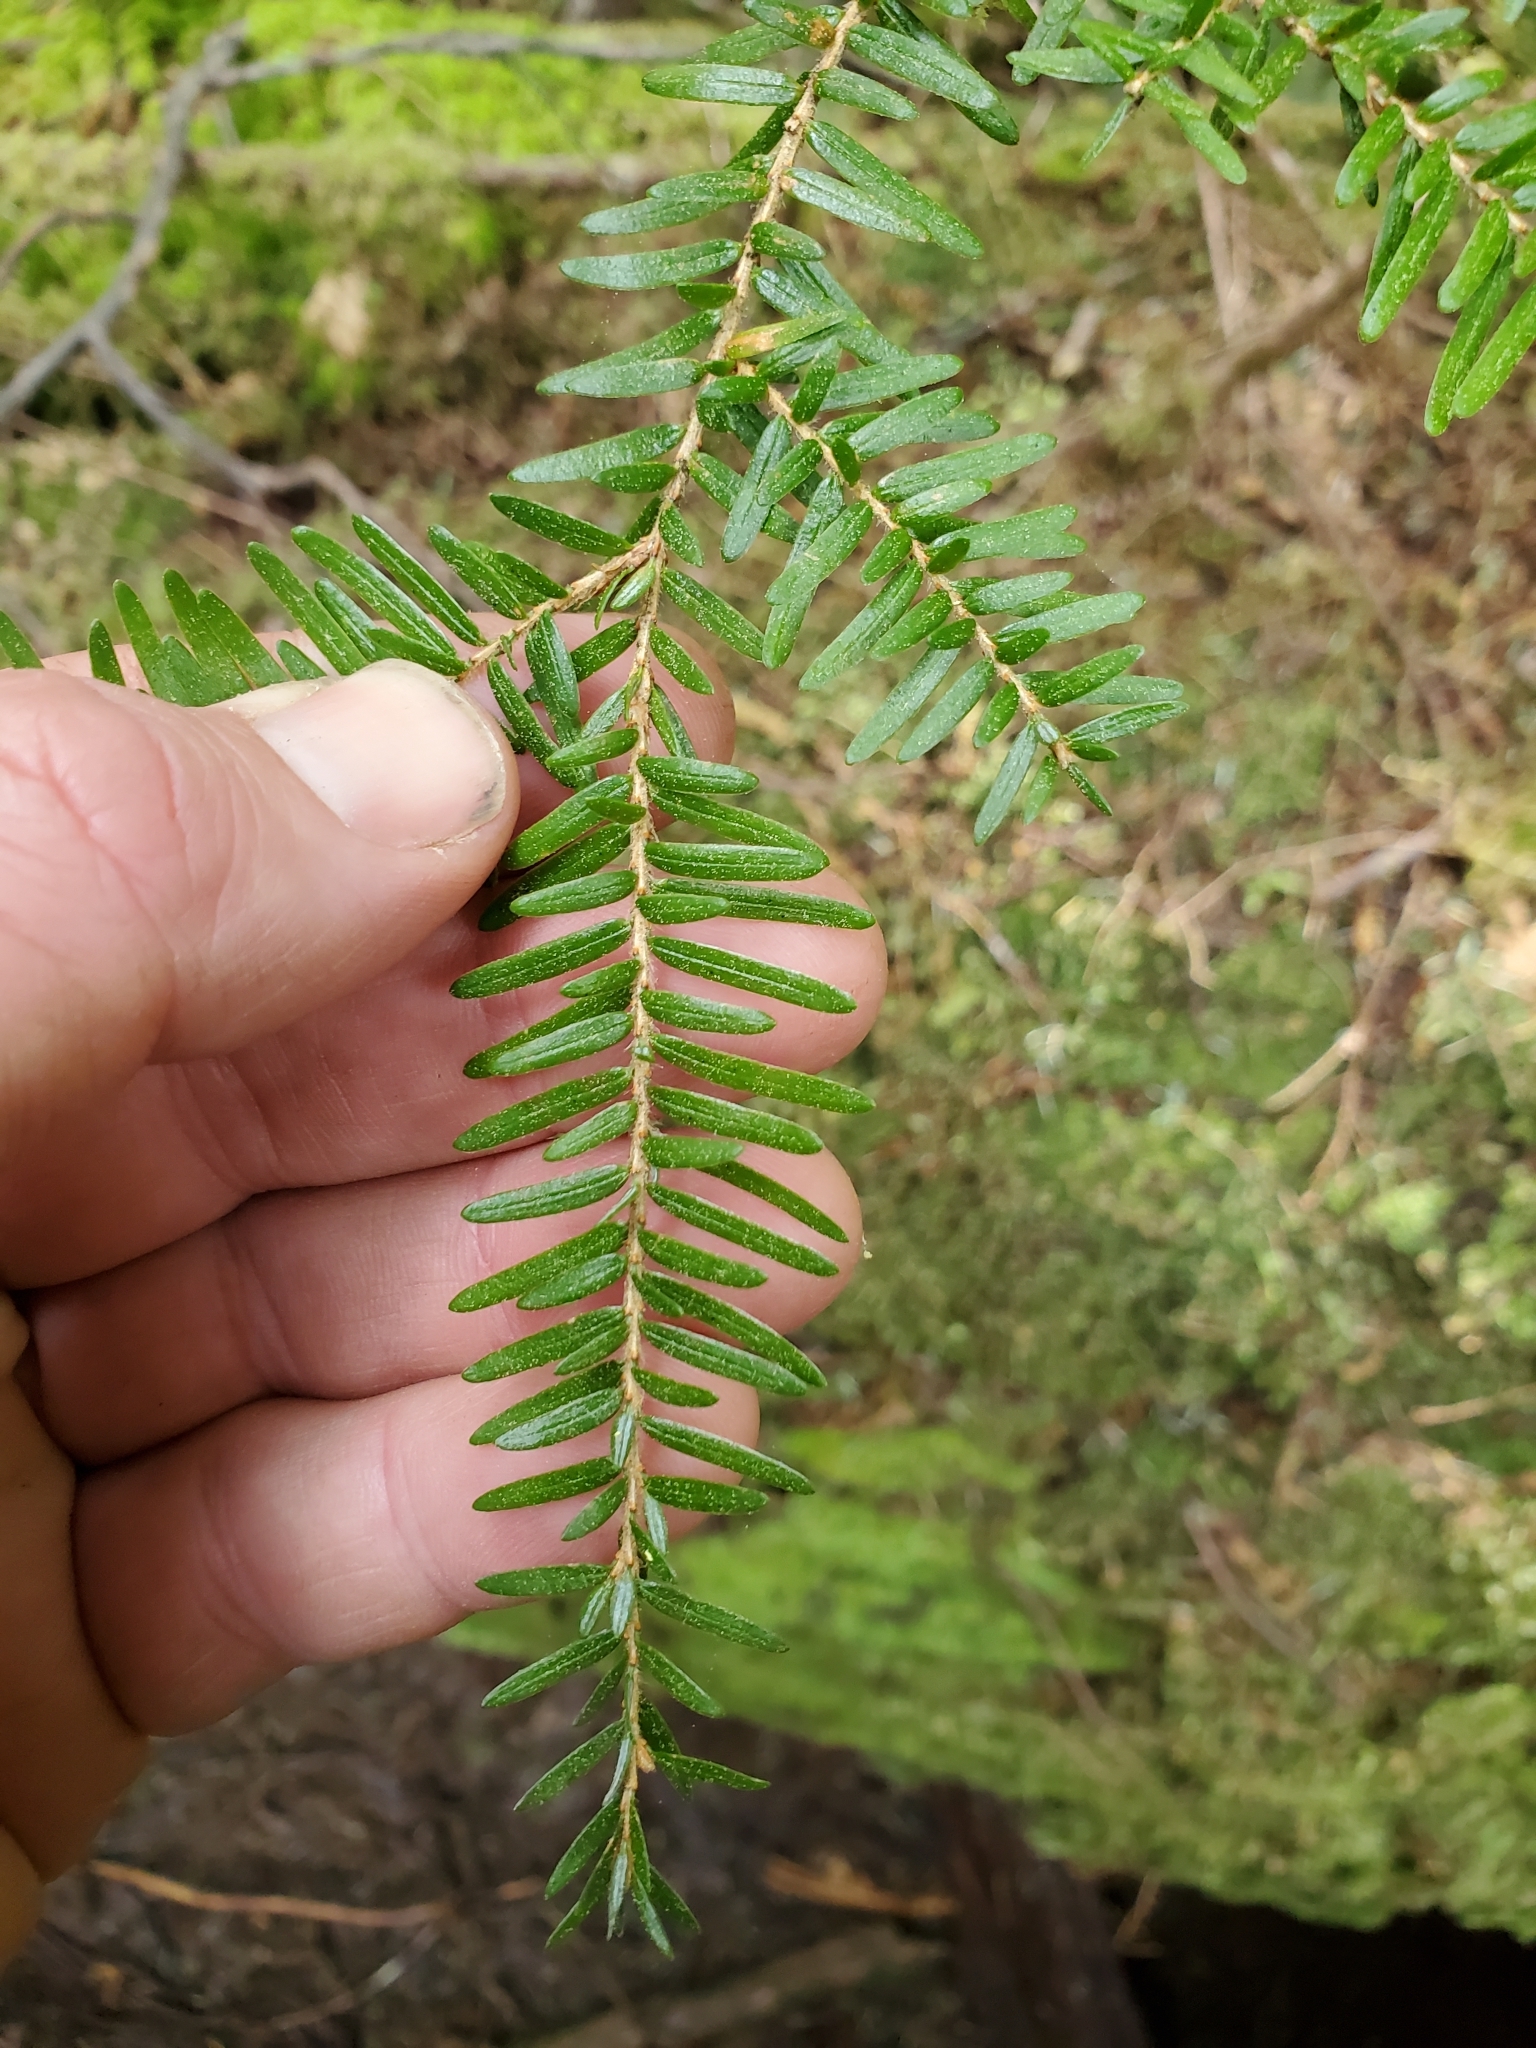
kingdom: Plantae
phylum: Tracheophyta
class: Pinopsida
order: Pinales
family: Pinaceae
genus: Tsuga
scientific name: Tsuga heterophylla
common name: Western hemlock
